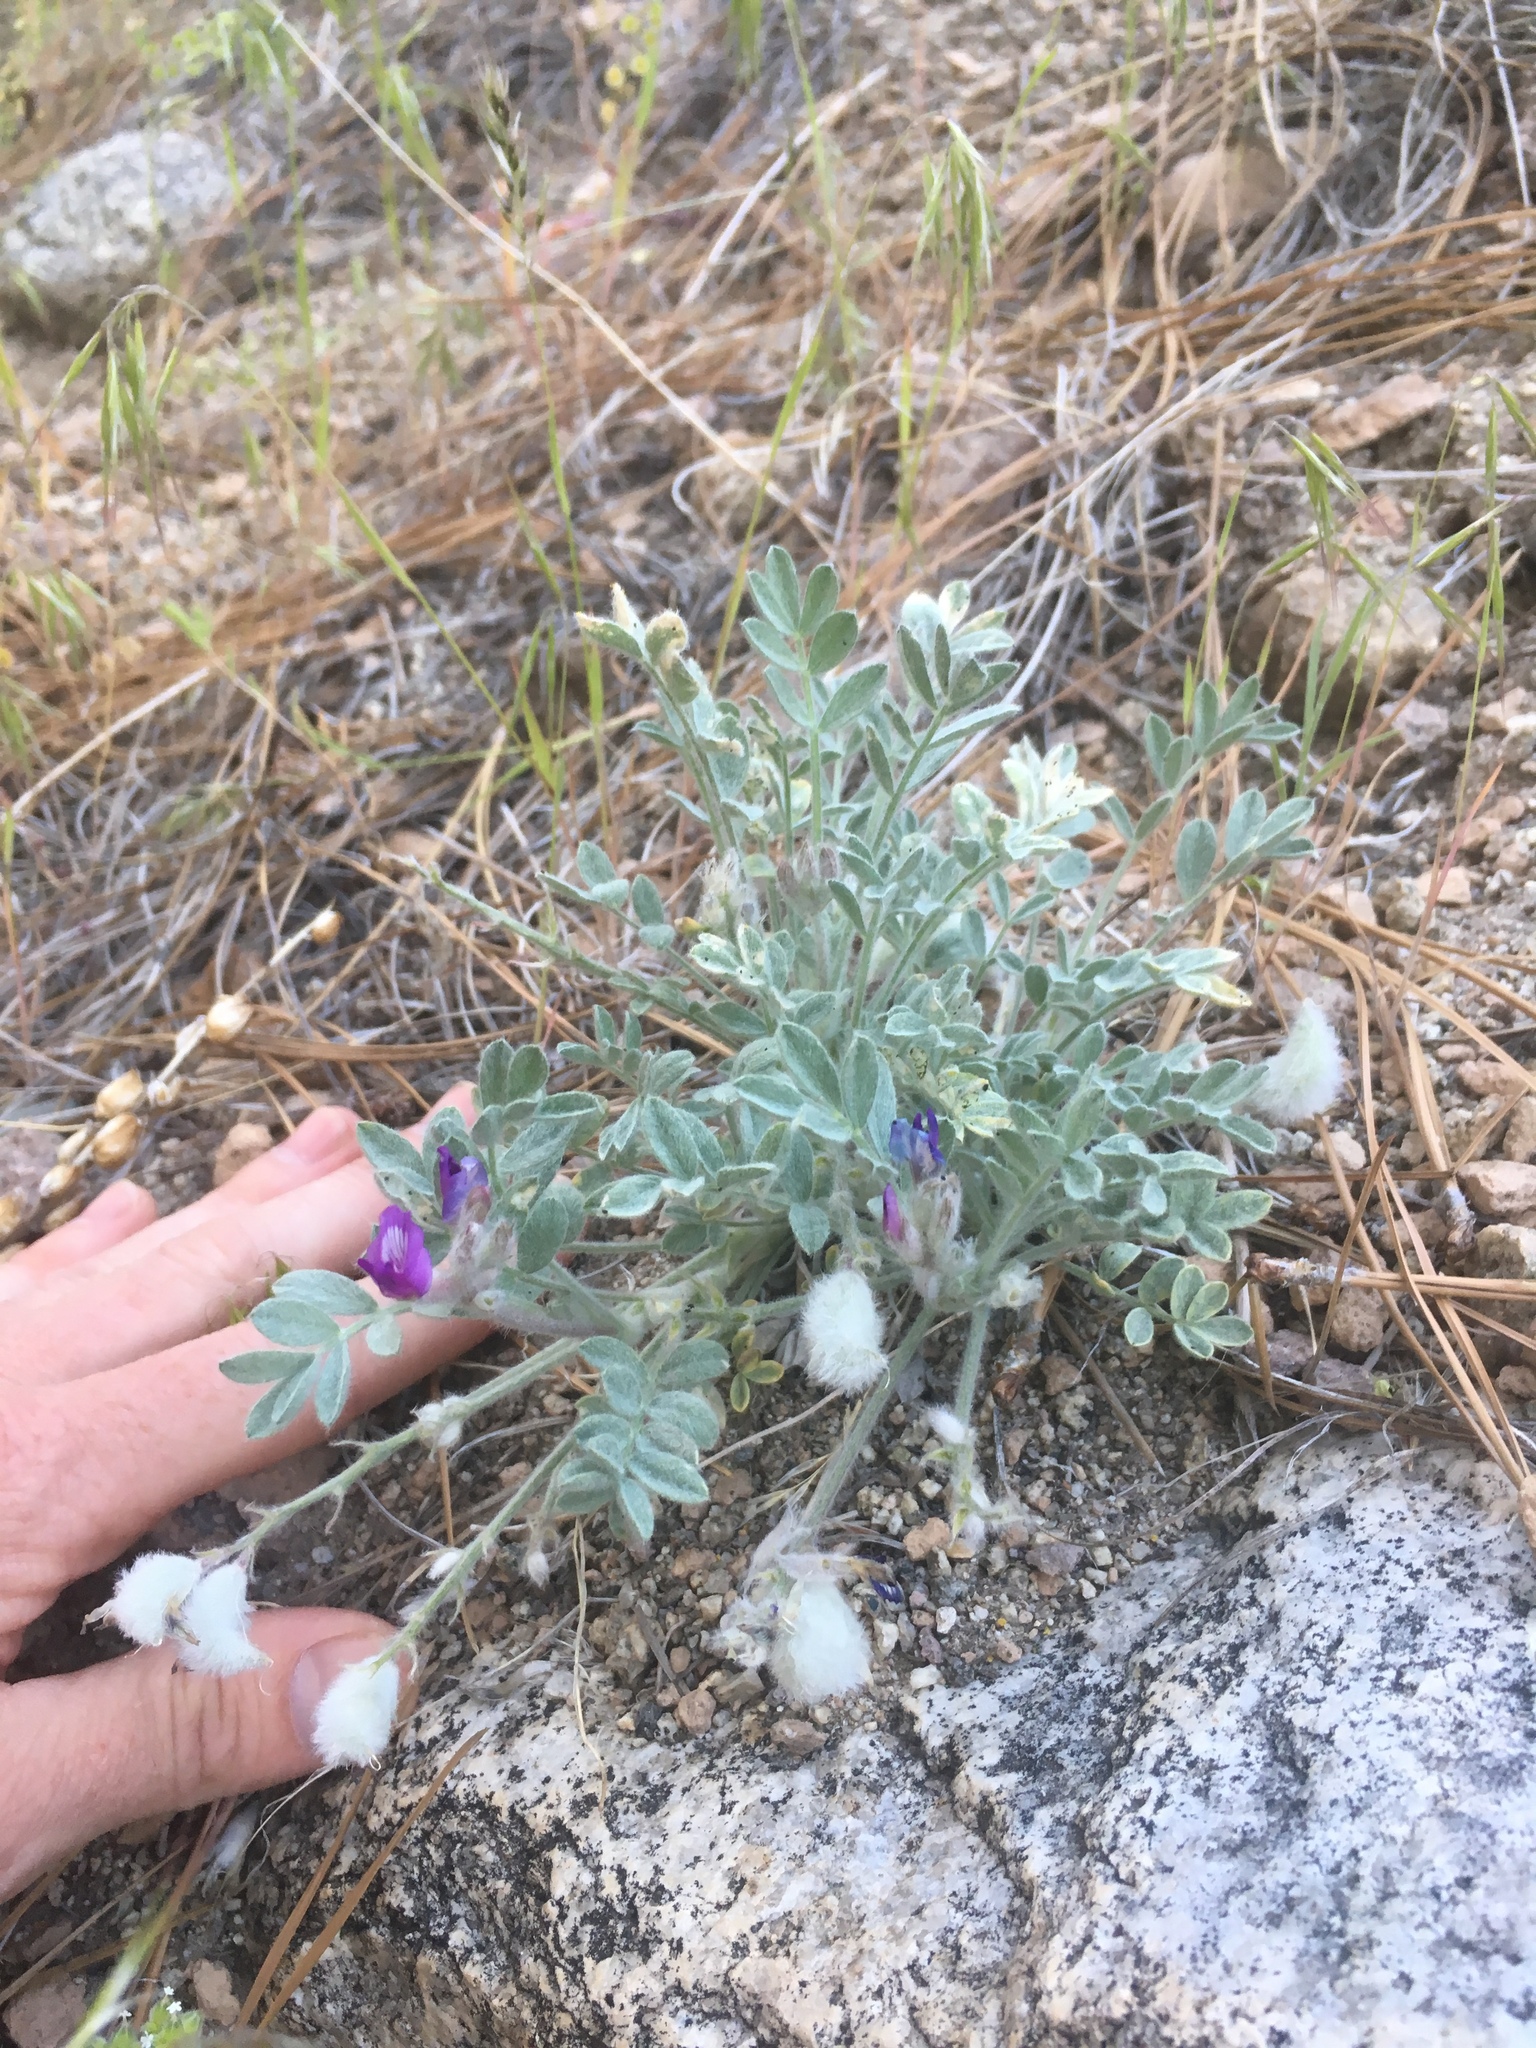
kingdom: Plantae
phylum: Tracheophyta
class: Magnoliopsida
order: Fabales
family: Fabaceae
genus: Astragalus
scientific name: Astragalus purshii
